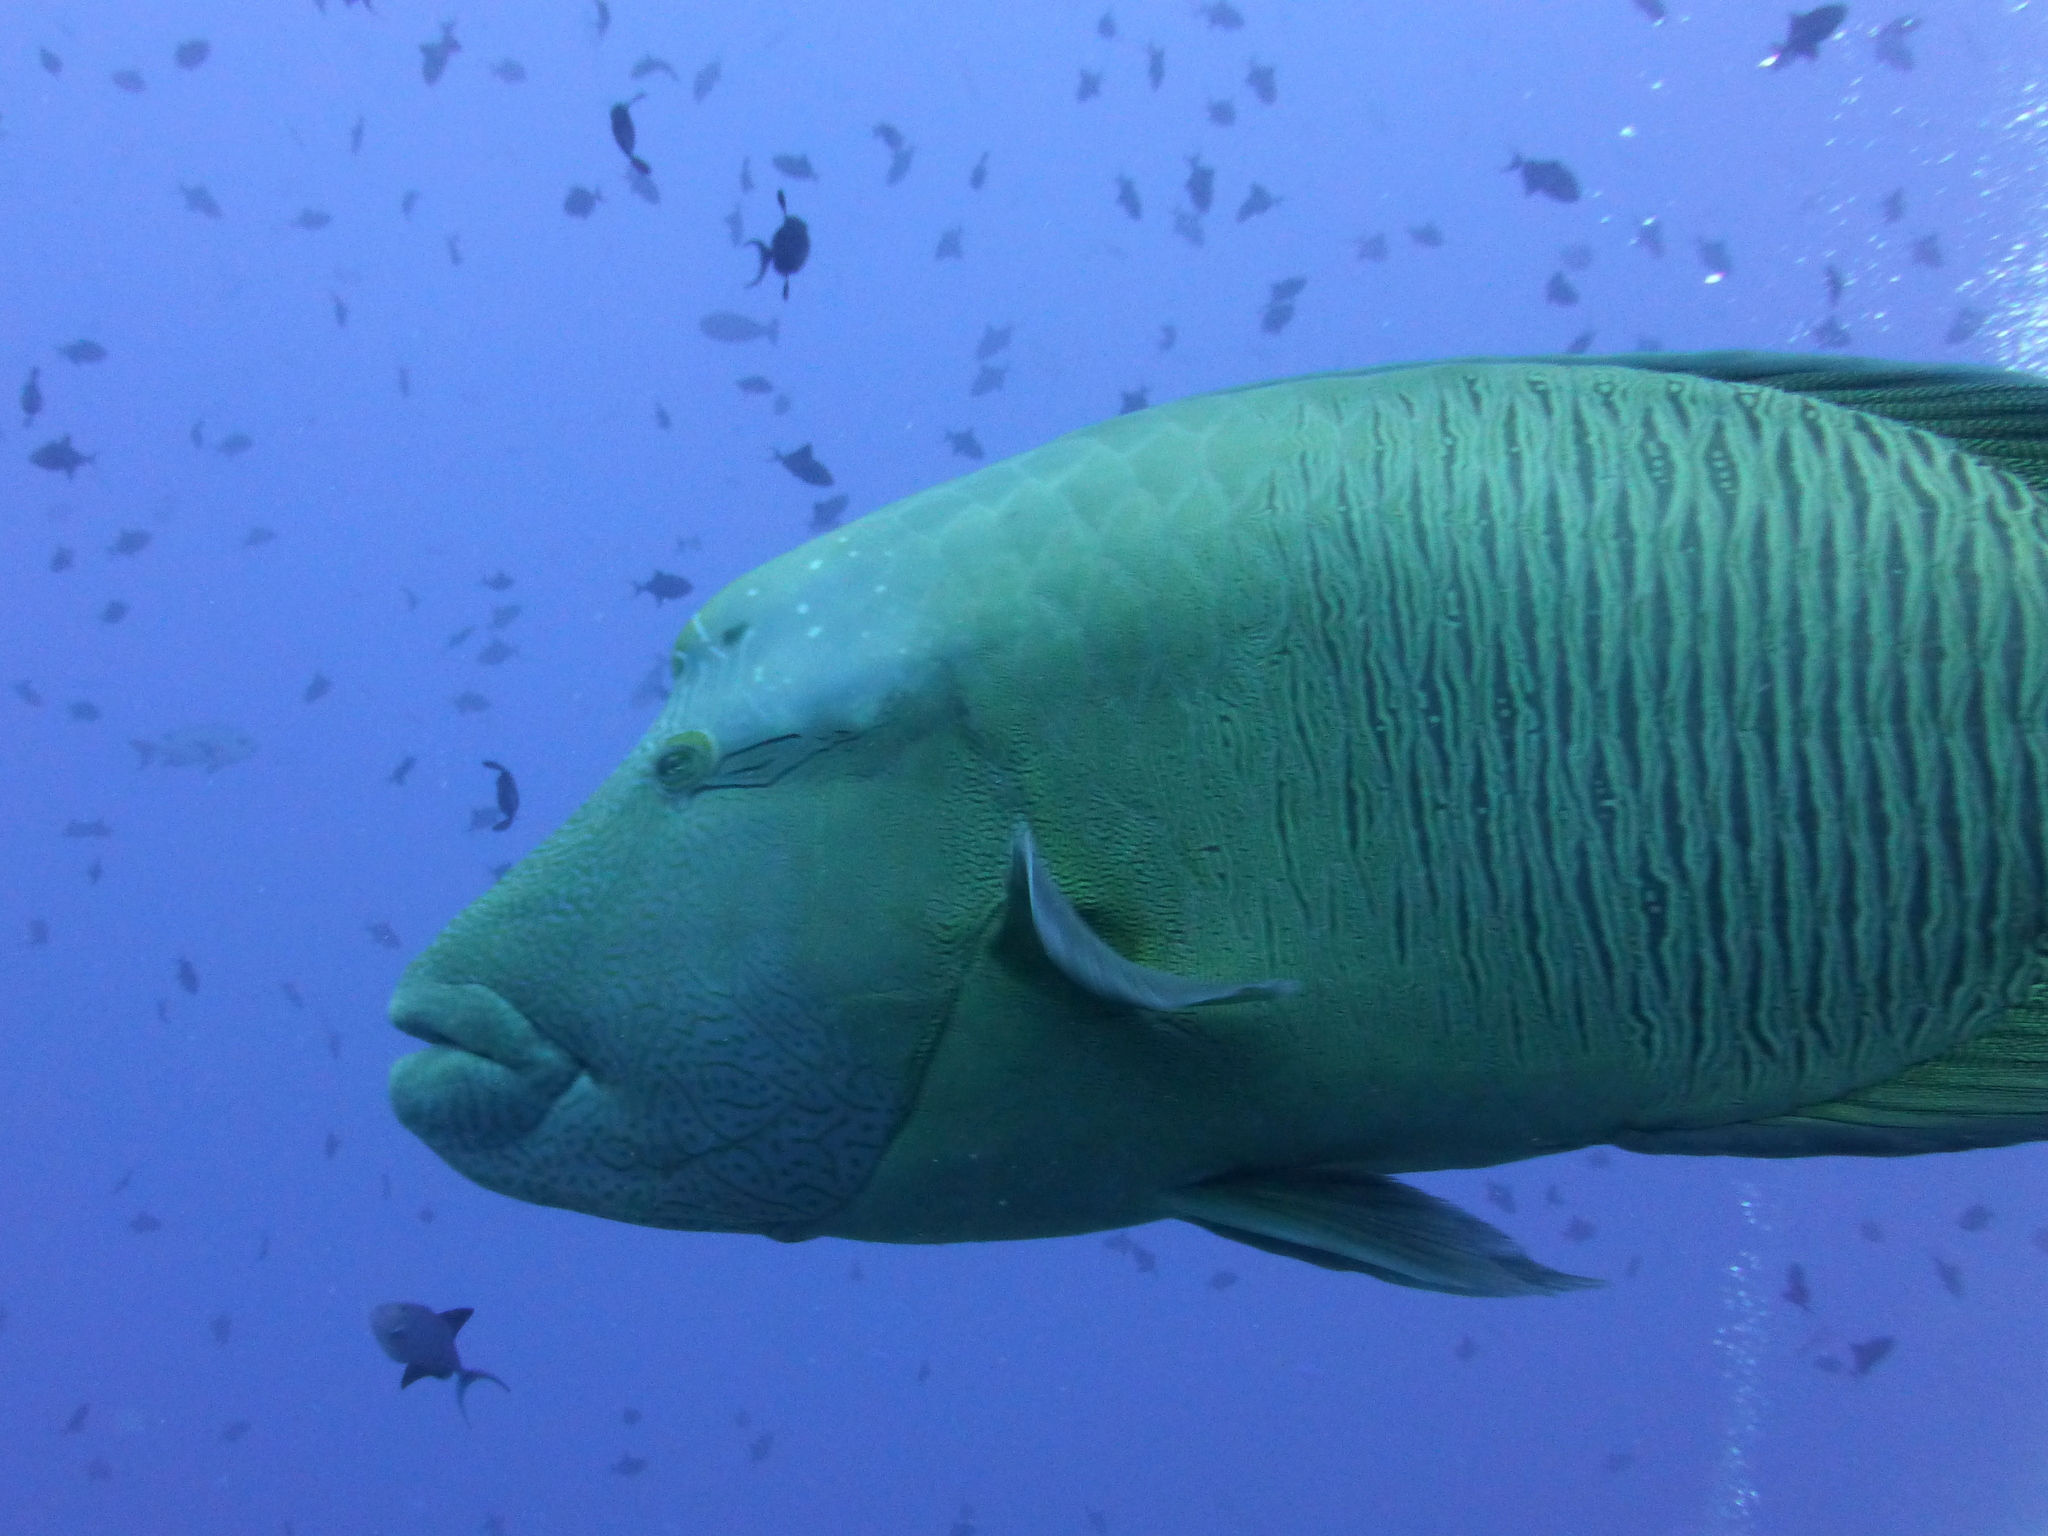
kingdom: Animalia
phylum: Chordata
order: Perciformes
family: Labridae
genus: Cheilinus
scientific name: Cheilinus undulatus
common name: Humphead wrasse
